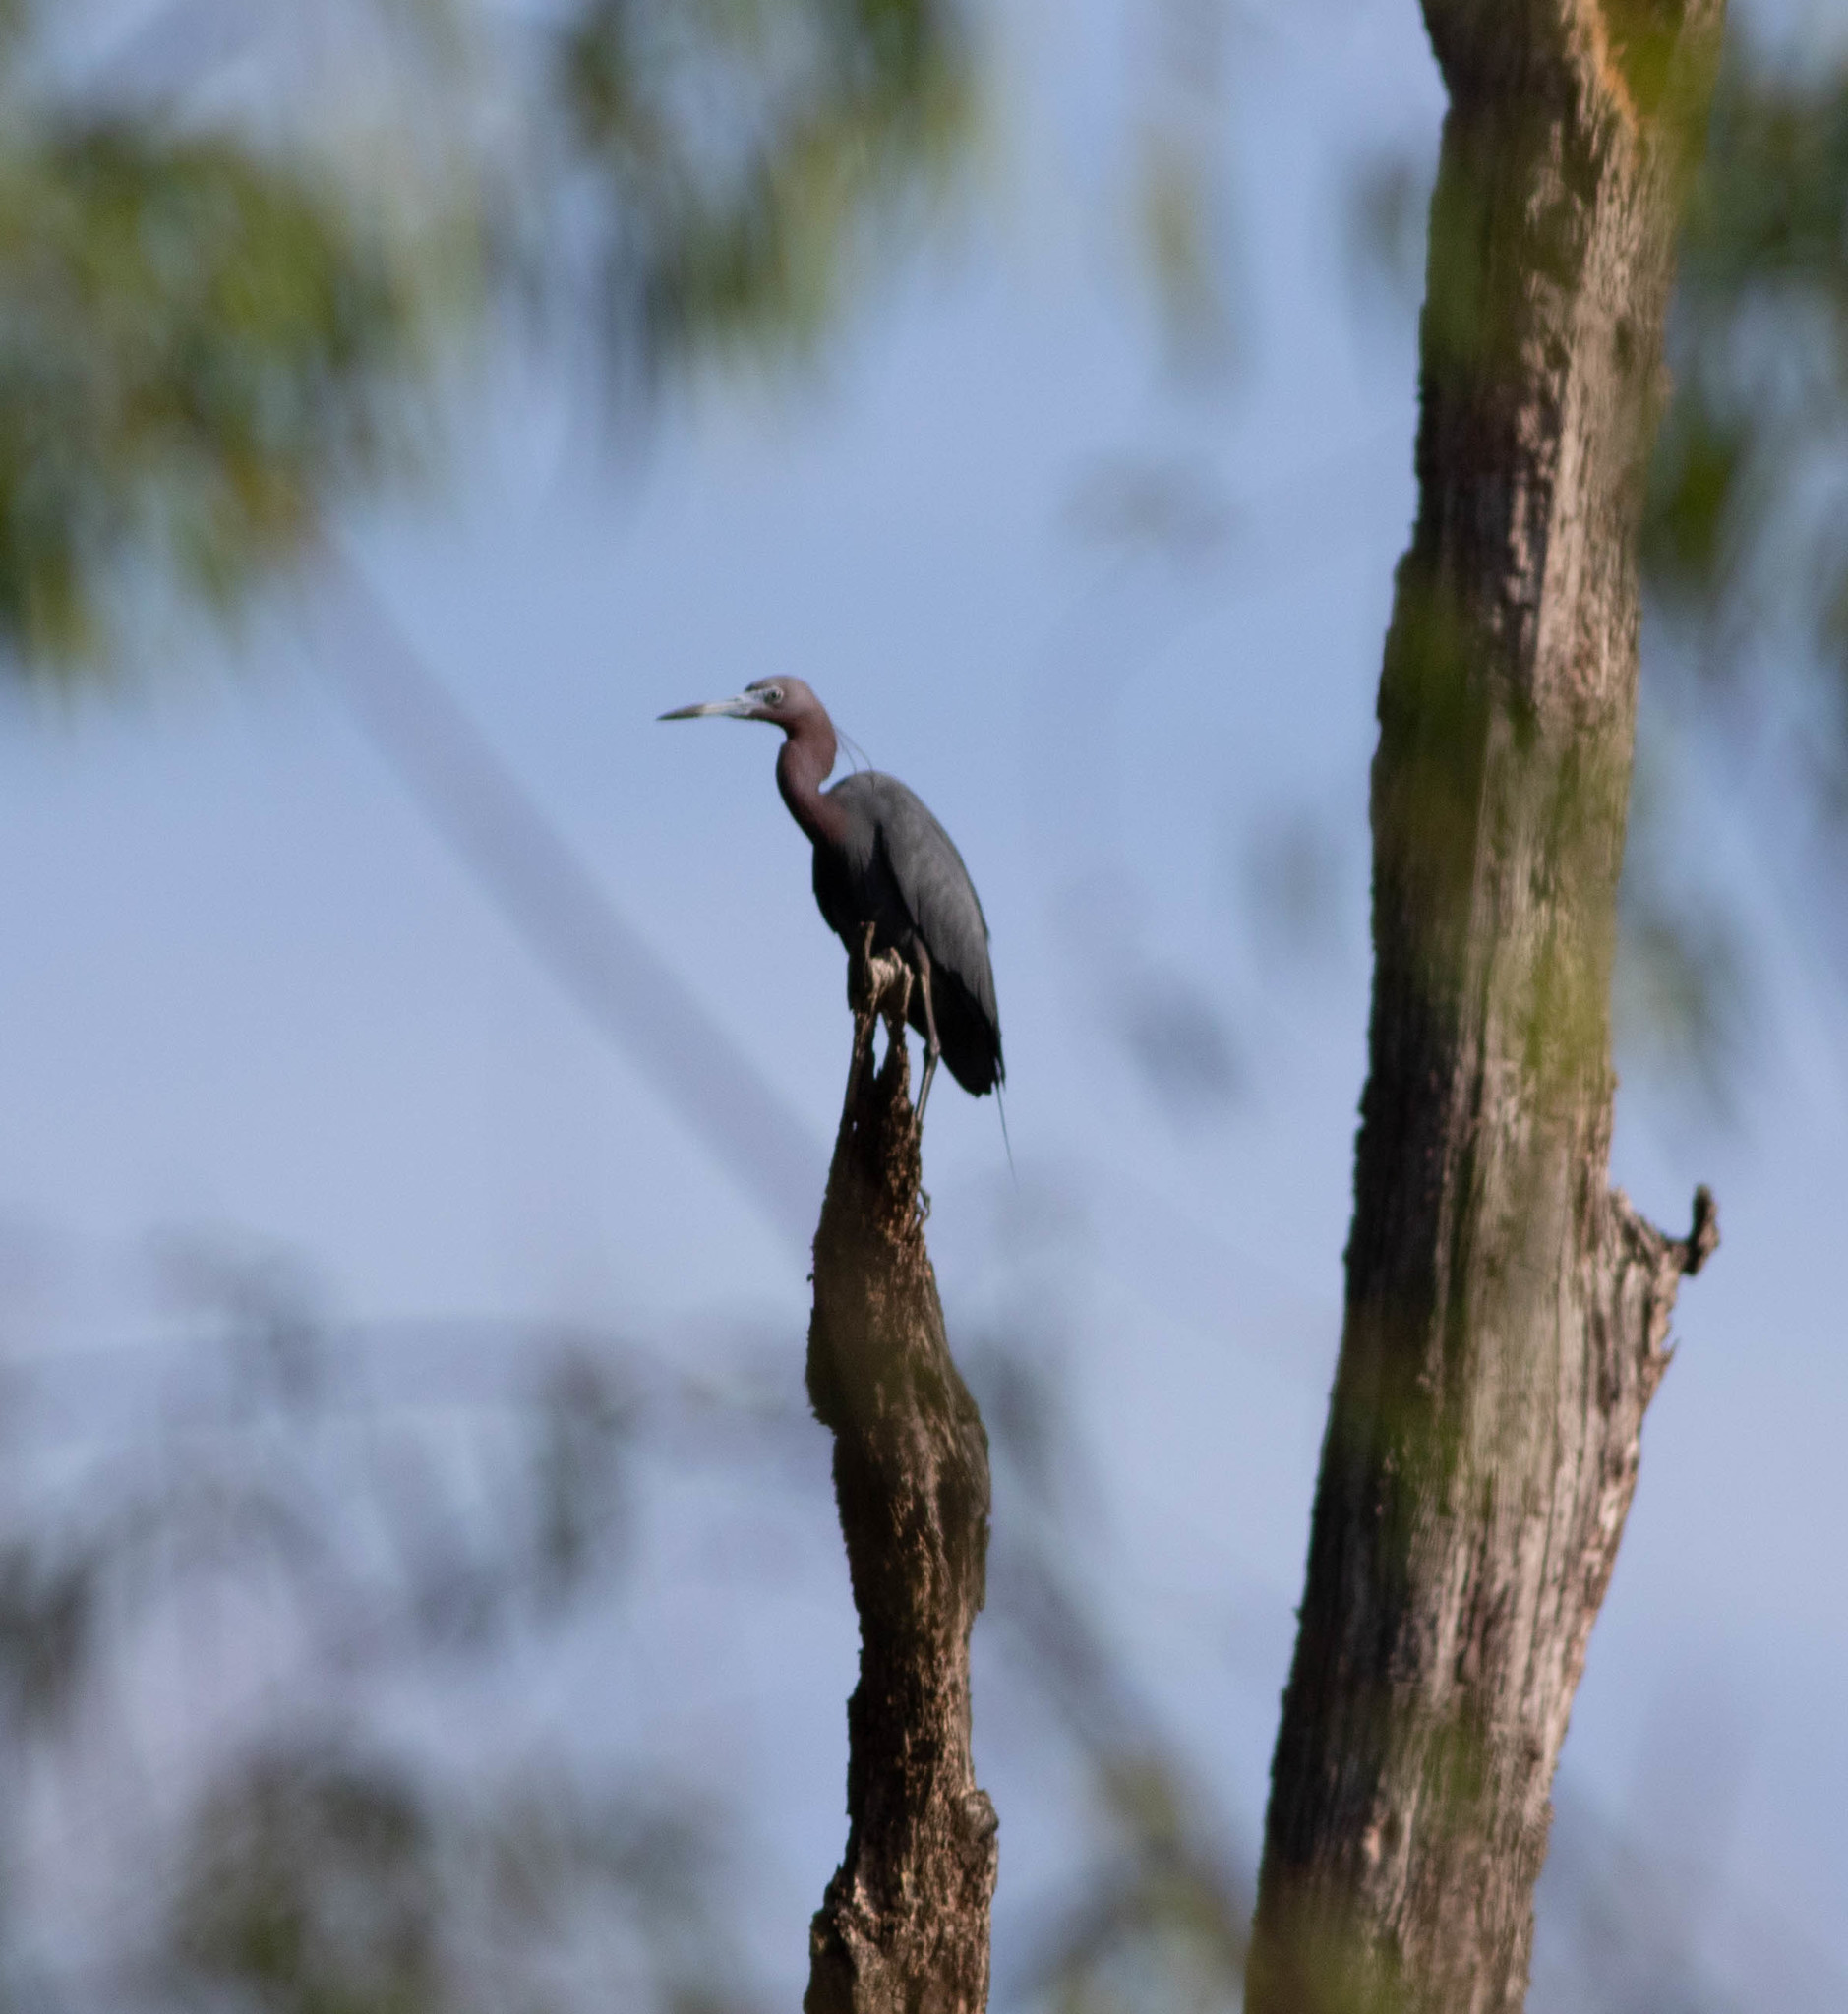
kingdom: Animalia
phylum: Chordata
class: Aves
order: Pelecaniformes
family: Ardeidae
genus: Egretta
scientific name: Egretta caerulea
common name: Little blue heron
